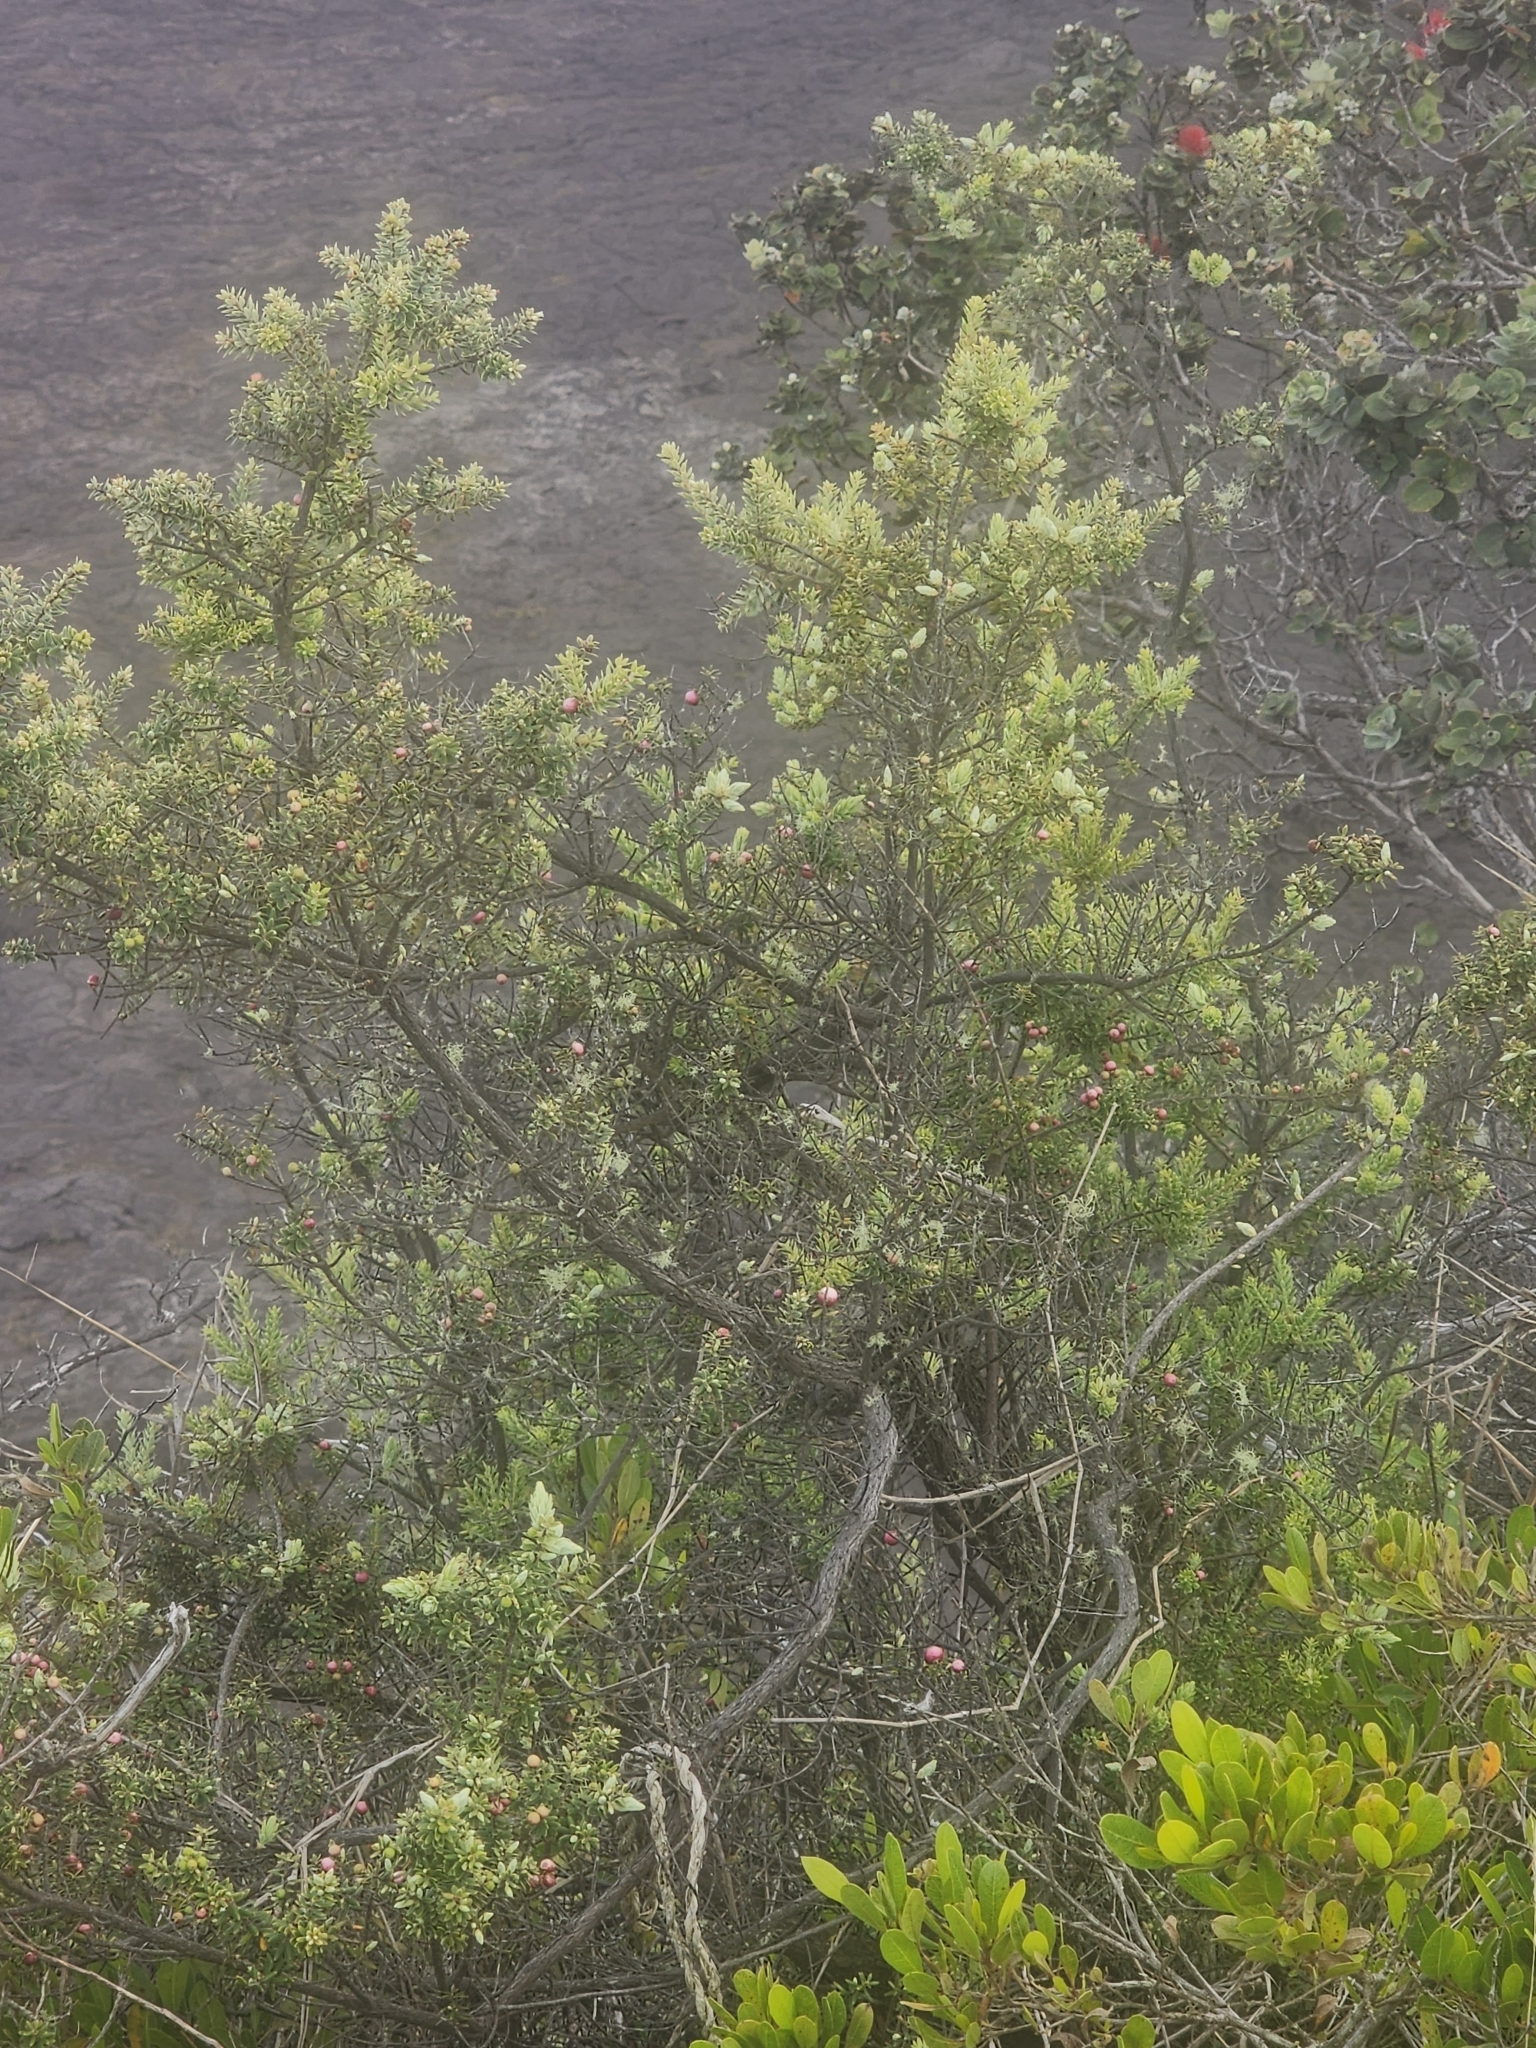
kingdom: Plantae
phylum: Tracheophyta
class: Magnoliopsida
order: Ericales
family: Ericaceae
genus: Leptecophylla
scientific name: Leptecophylla tameiameiae
